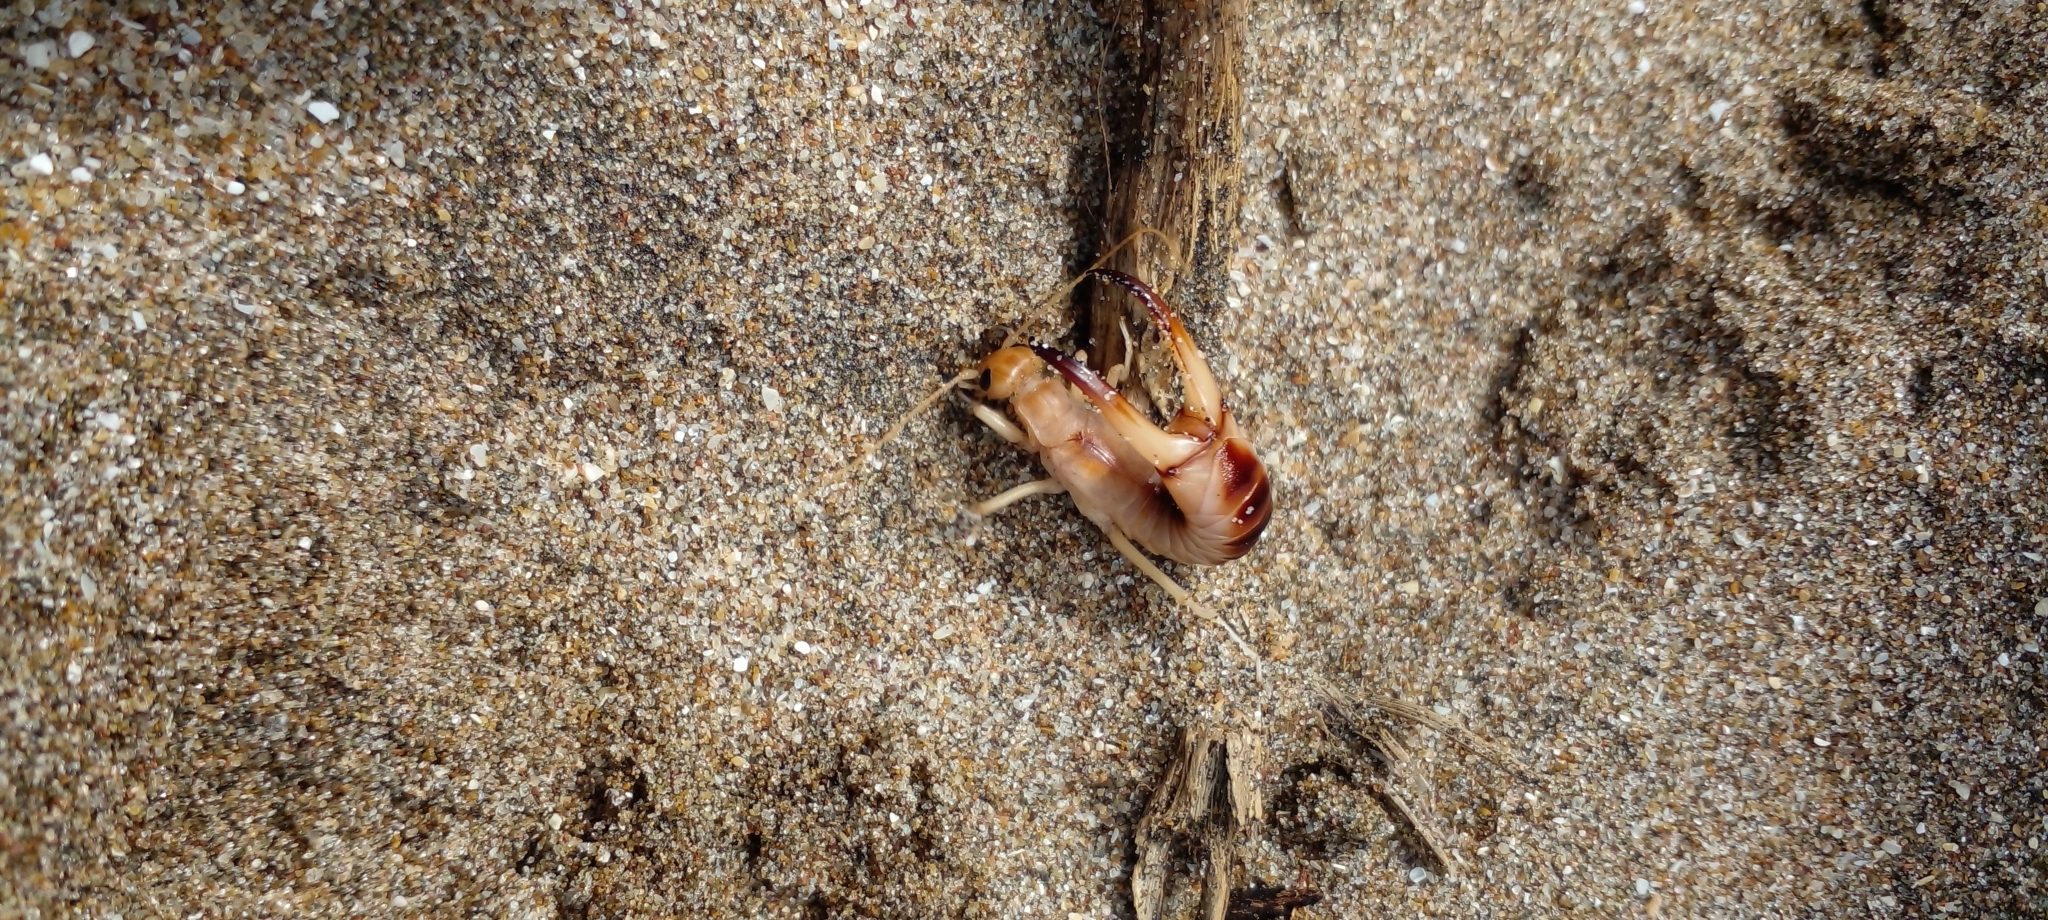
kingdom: Animalia
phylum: Arthropoda
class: Insecta
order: Dermaptera
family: Labiduridae
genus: Labidura
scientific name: Labidura riparia
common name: Striped earwig
